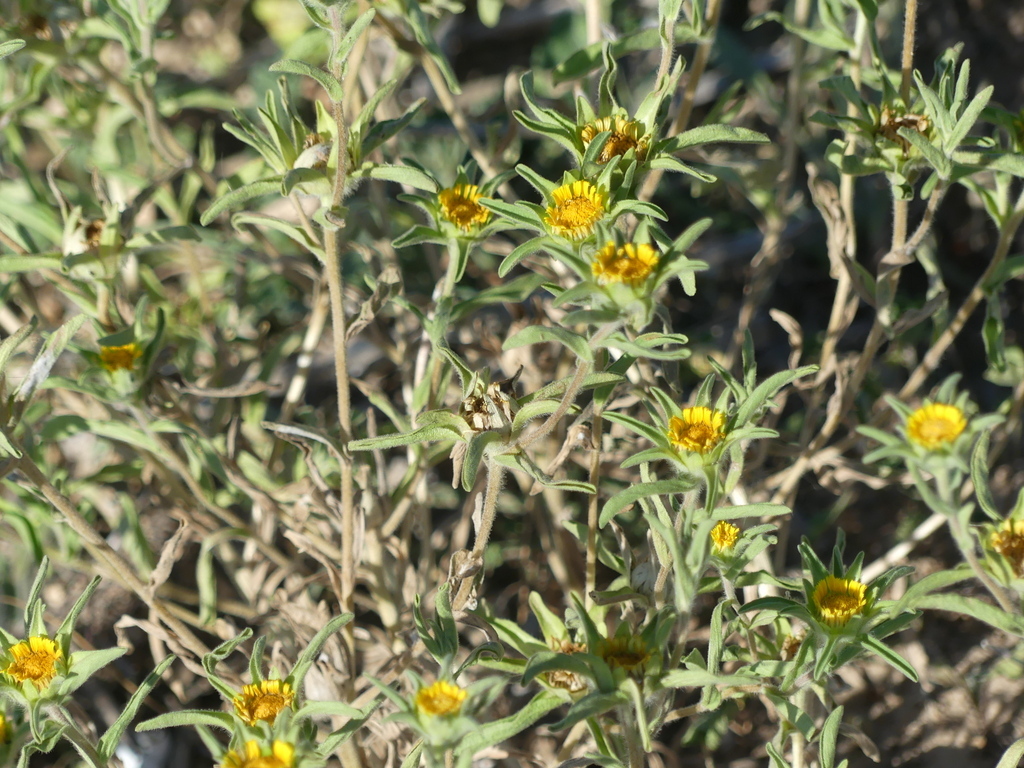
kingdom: Plantae
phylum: Tracheophyta
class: Magnoliopsida
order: Asterales
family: Asteraceae
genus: Asteriscus
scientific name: Asteriscus aquaticus
